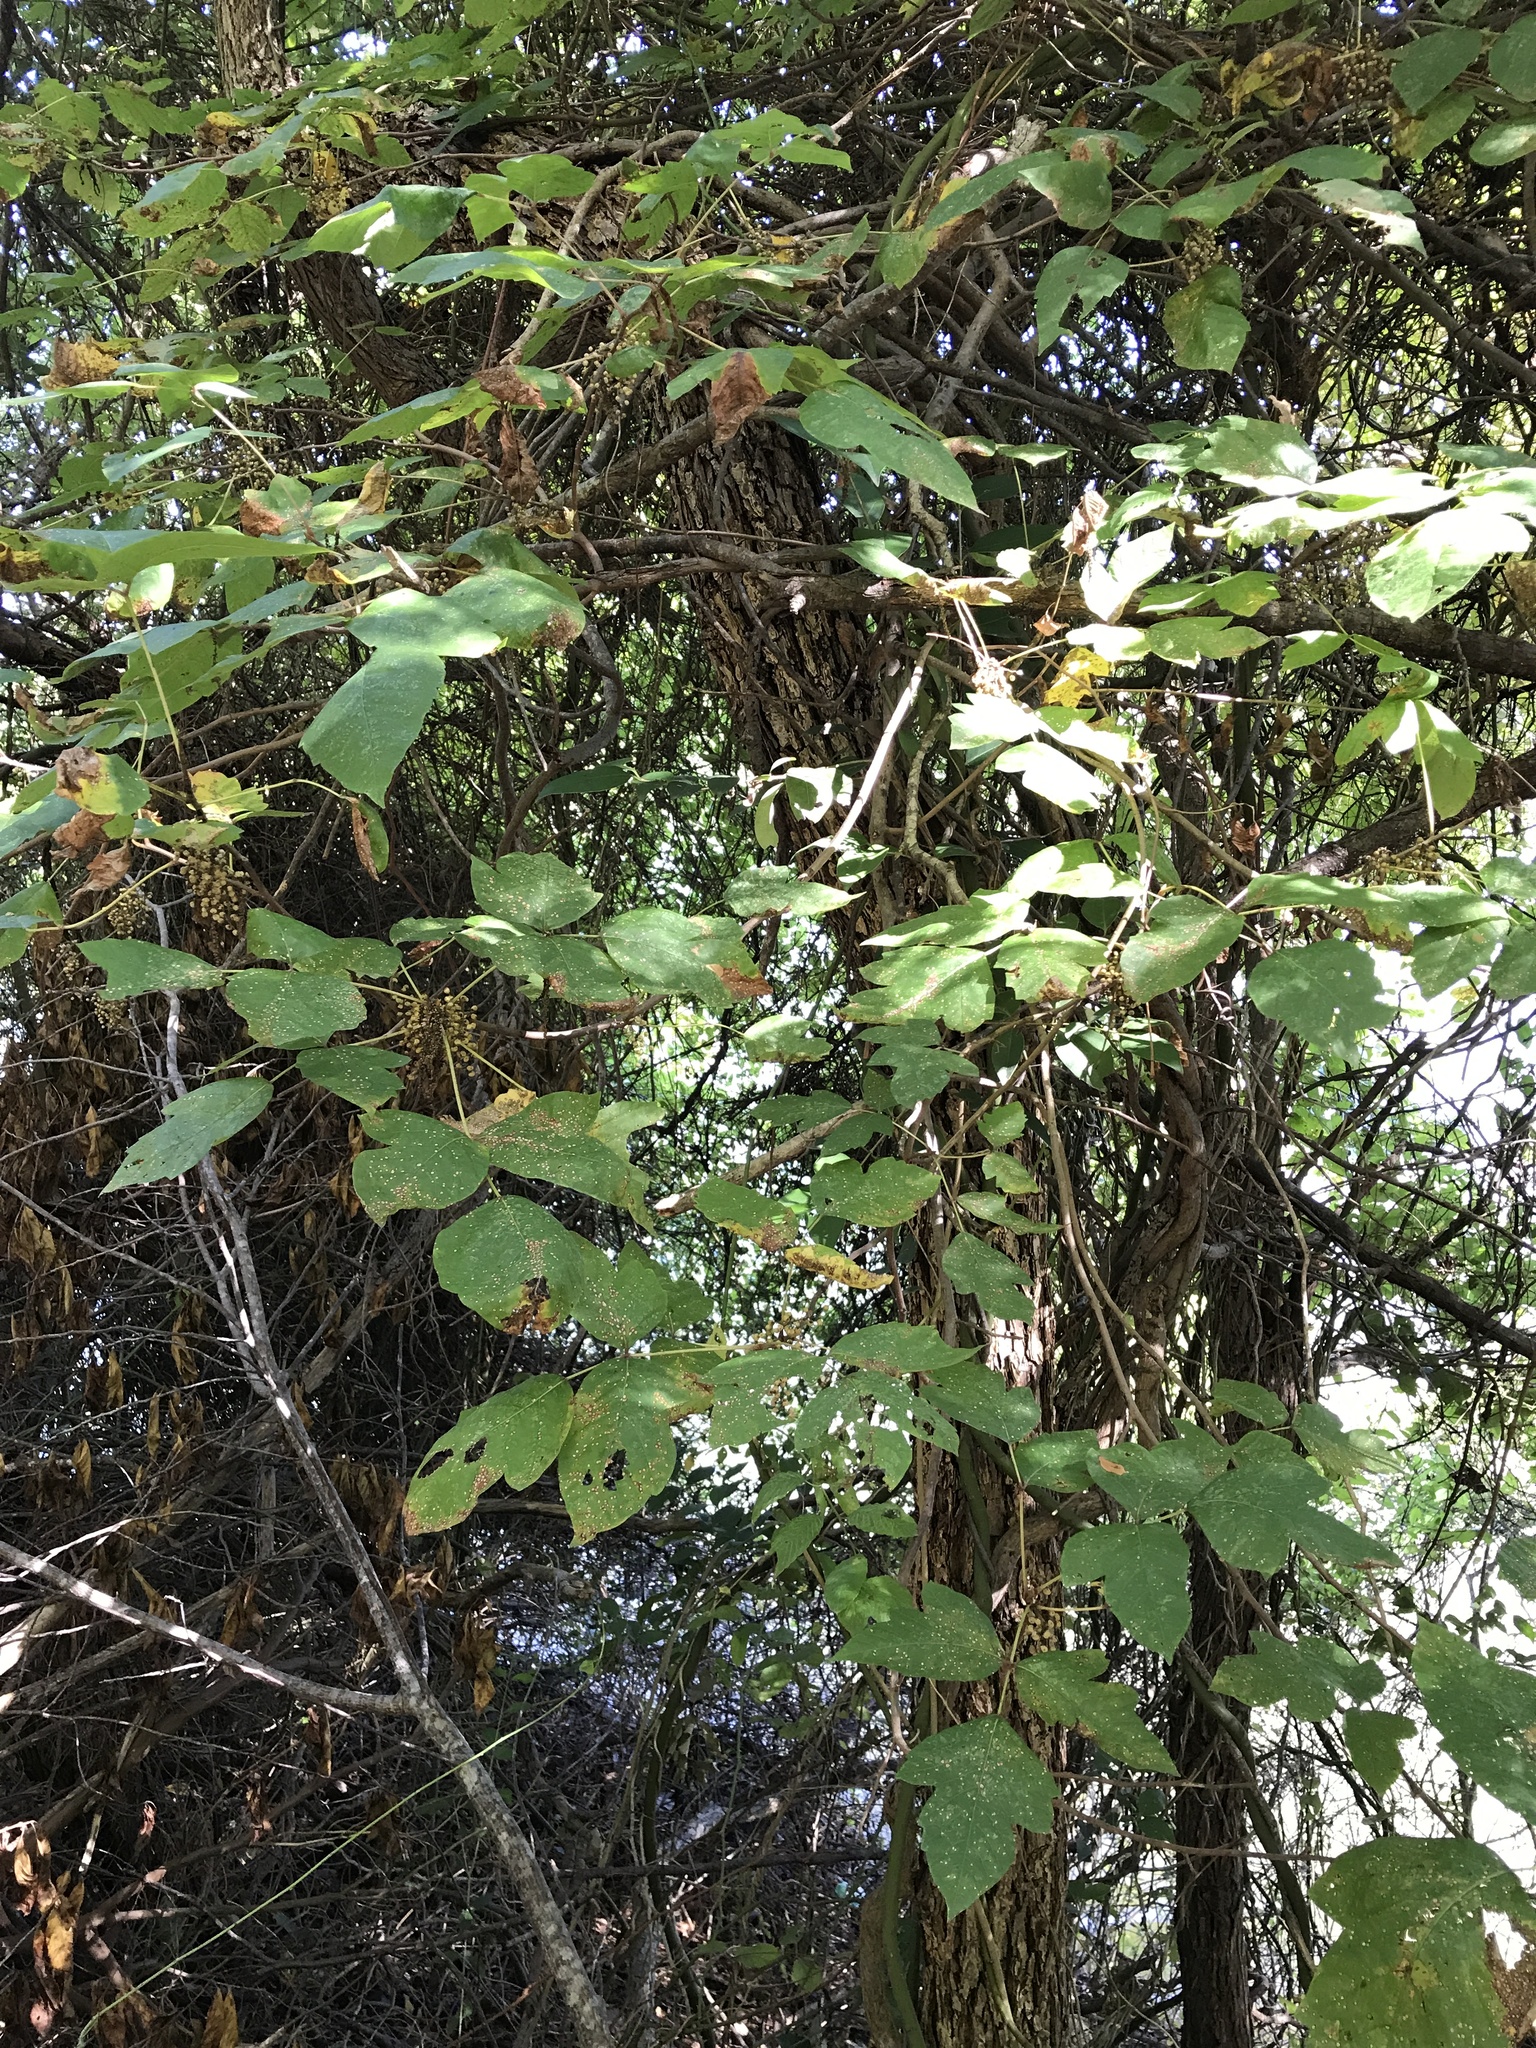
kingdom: Plantae
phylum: Tracheophyta
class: Magnoliopsida
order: Sapindales
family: Anacardiaceae
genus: Toxicodendron
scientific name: Toxicodendron radicans
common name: Poison ivy
